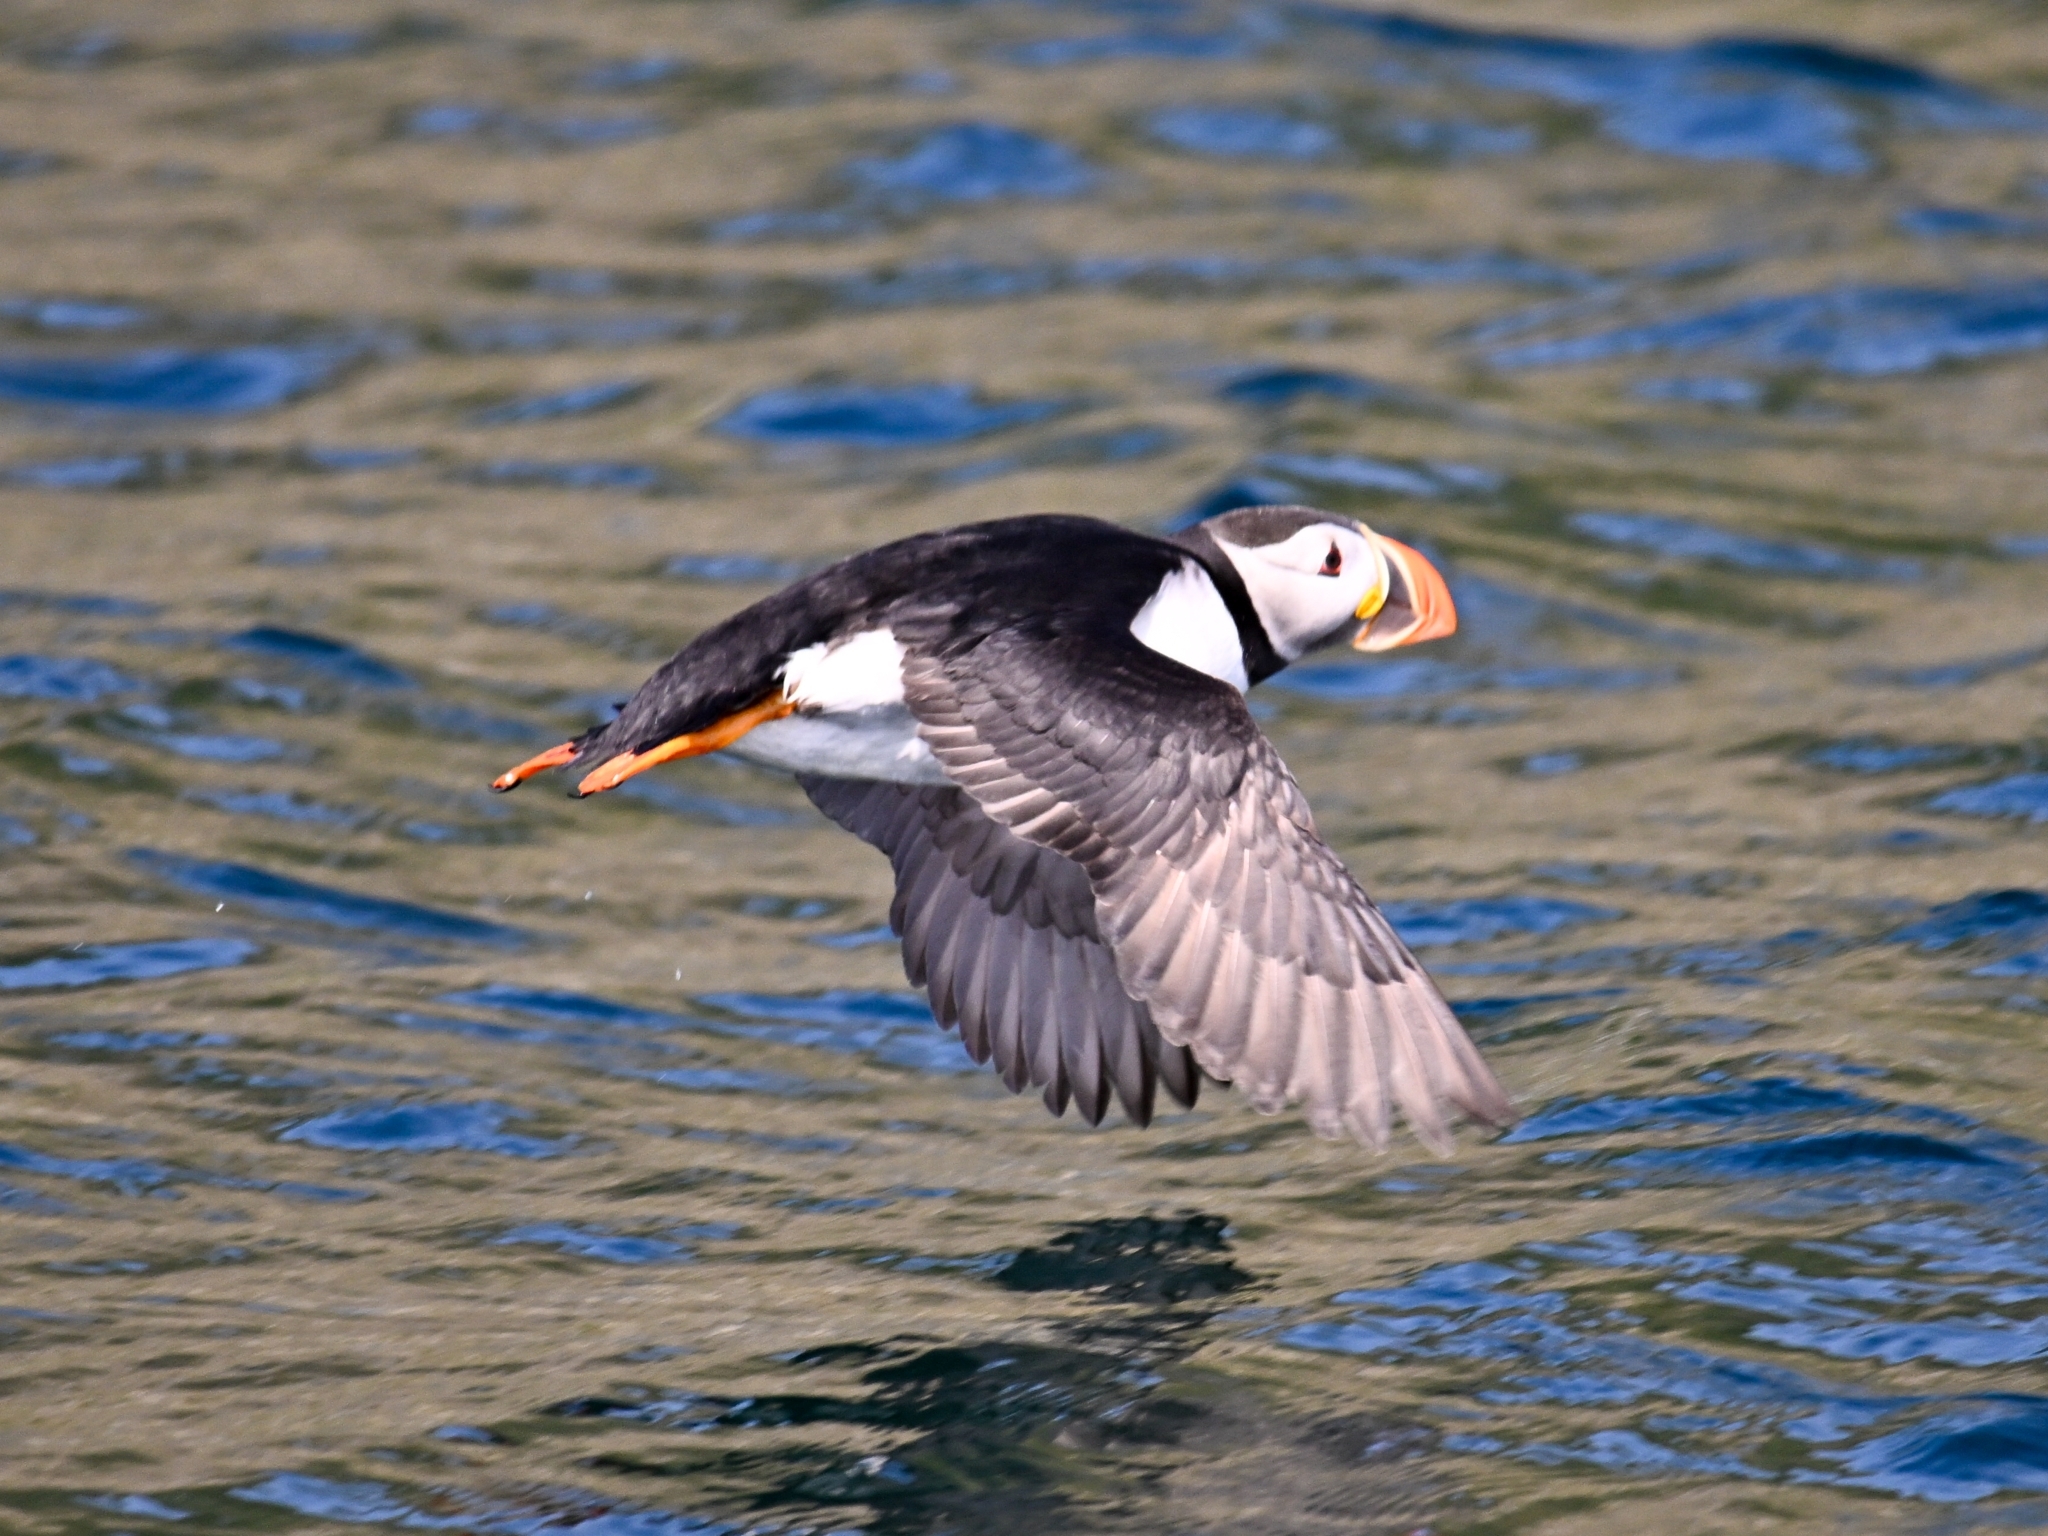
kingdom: Animalia
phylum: Chordata
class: Aves
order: Charadriiformes
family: Alcidae
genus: Fratercula
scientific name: Fratercula arctica
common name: Atlantic puffin
